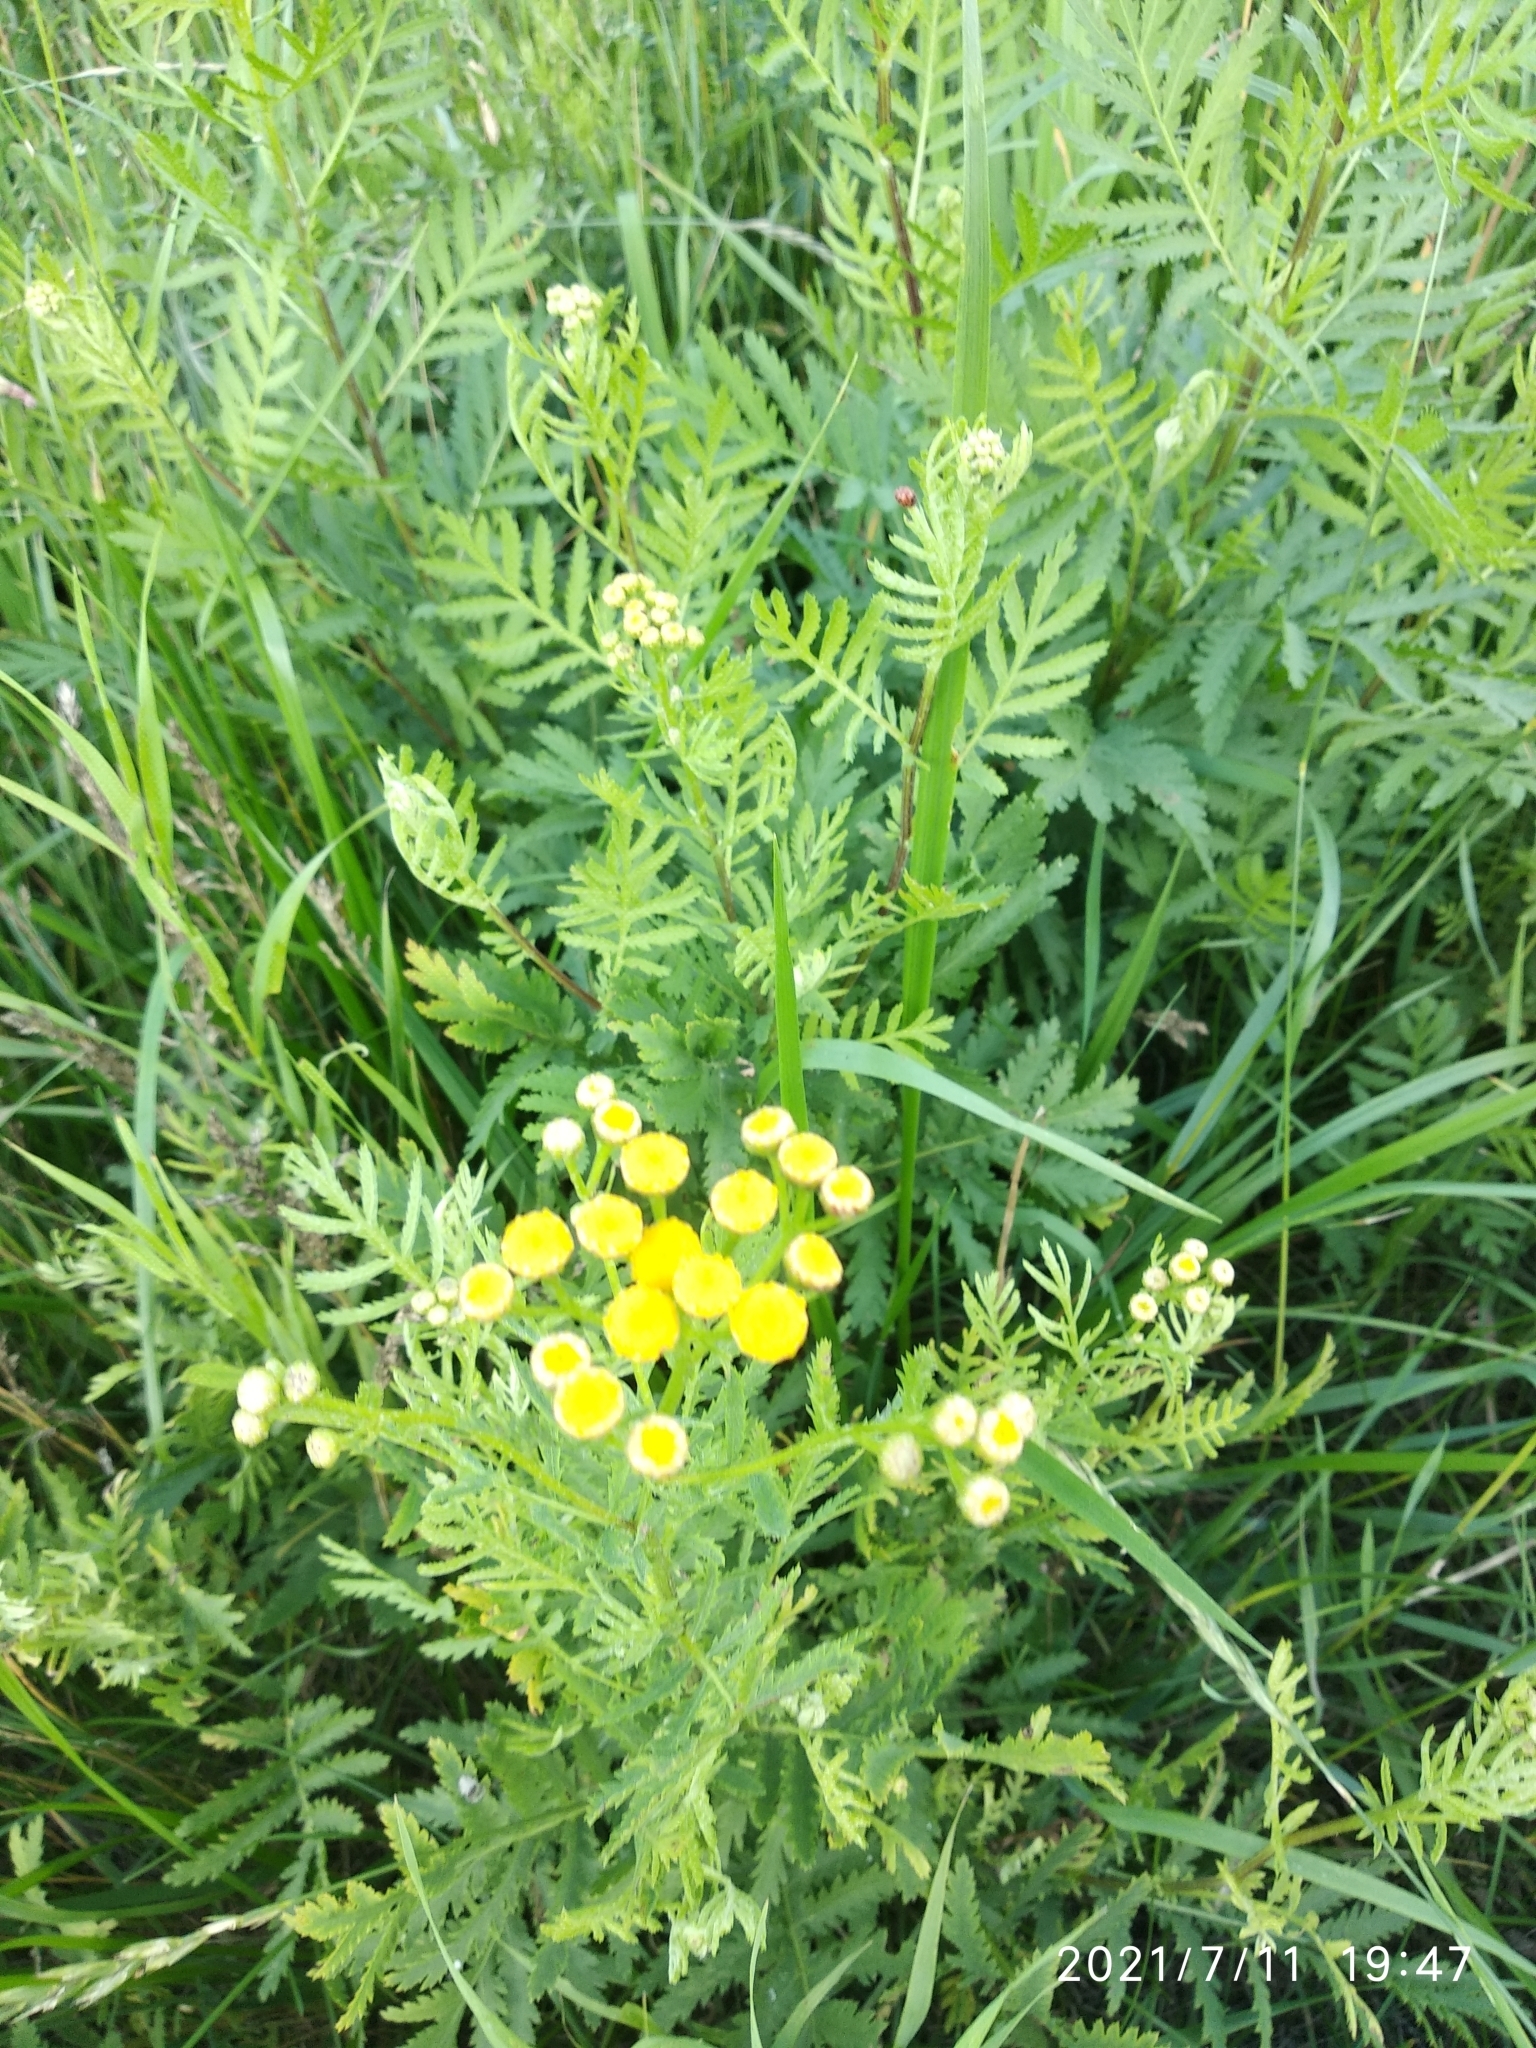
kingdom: Plantae
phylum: Tracheophyta
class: Magnoliopsida
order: Asterales
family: Asteraceae
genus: Tanacetum
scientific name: Tanacetum vulgare
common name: Common tansy
